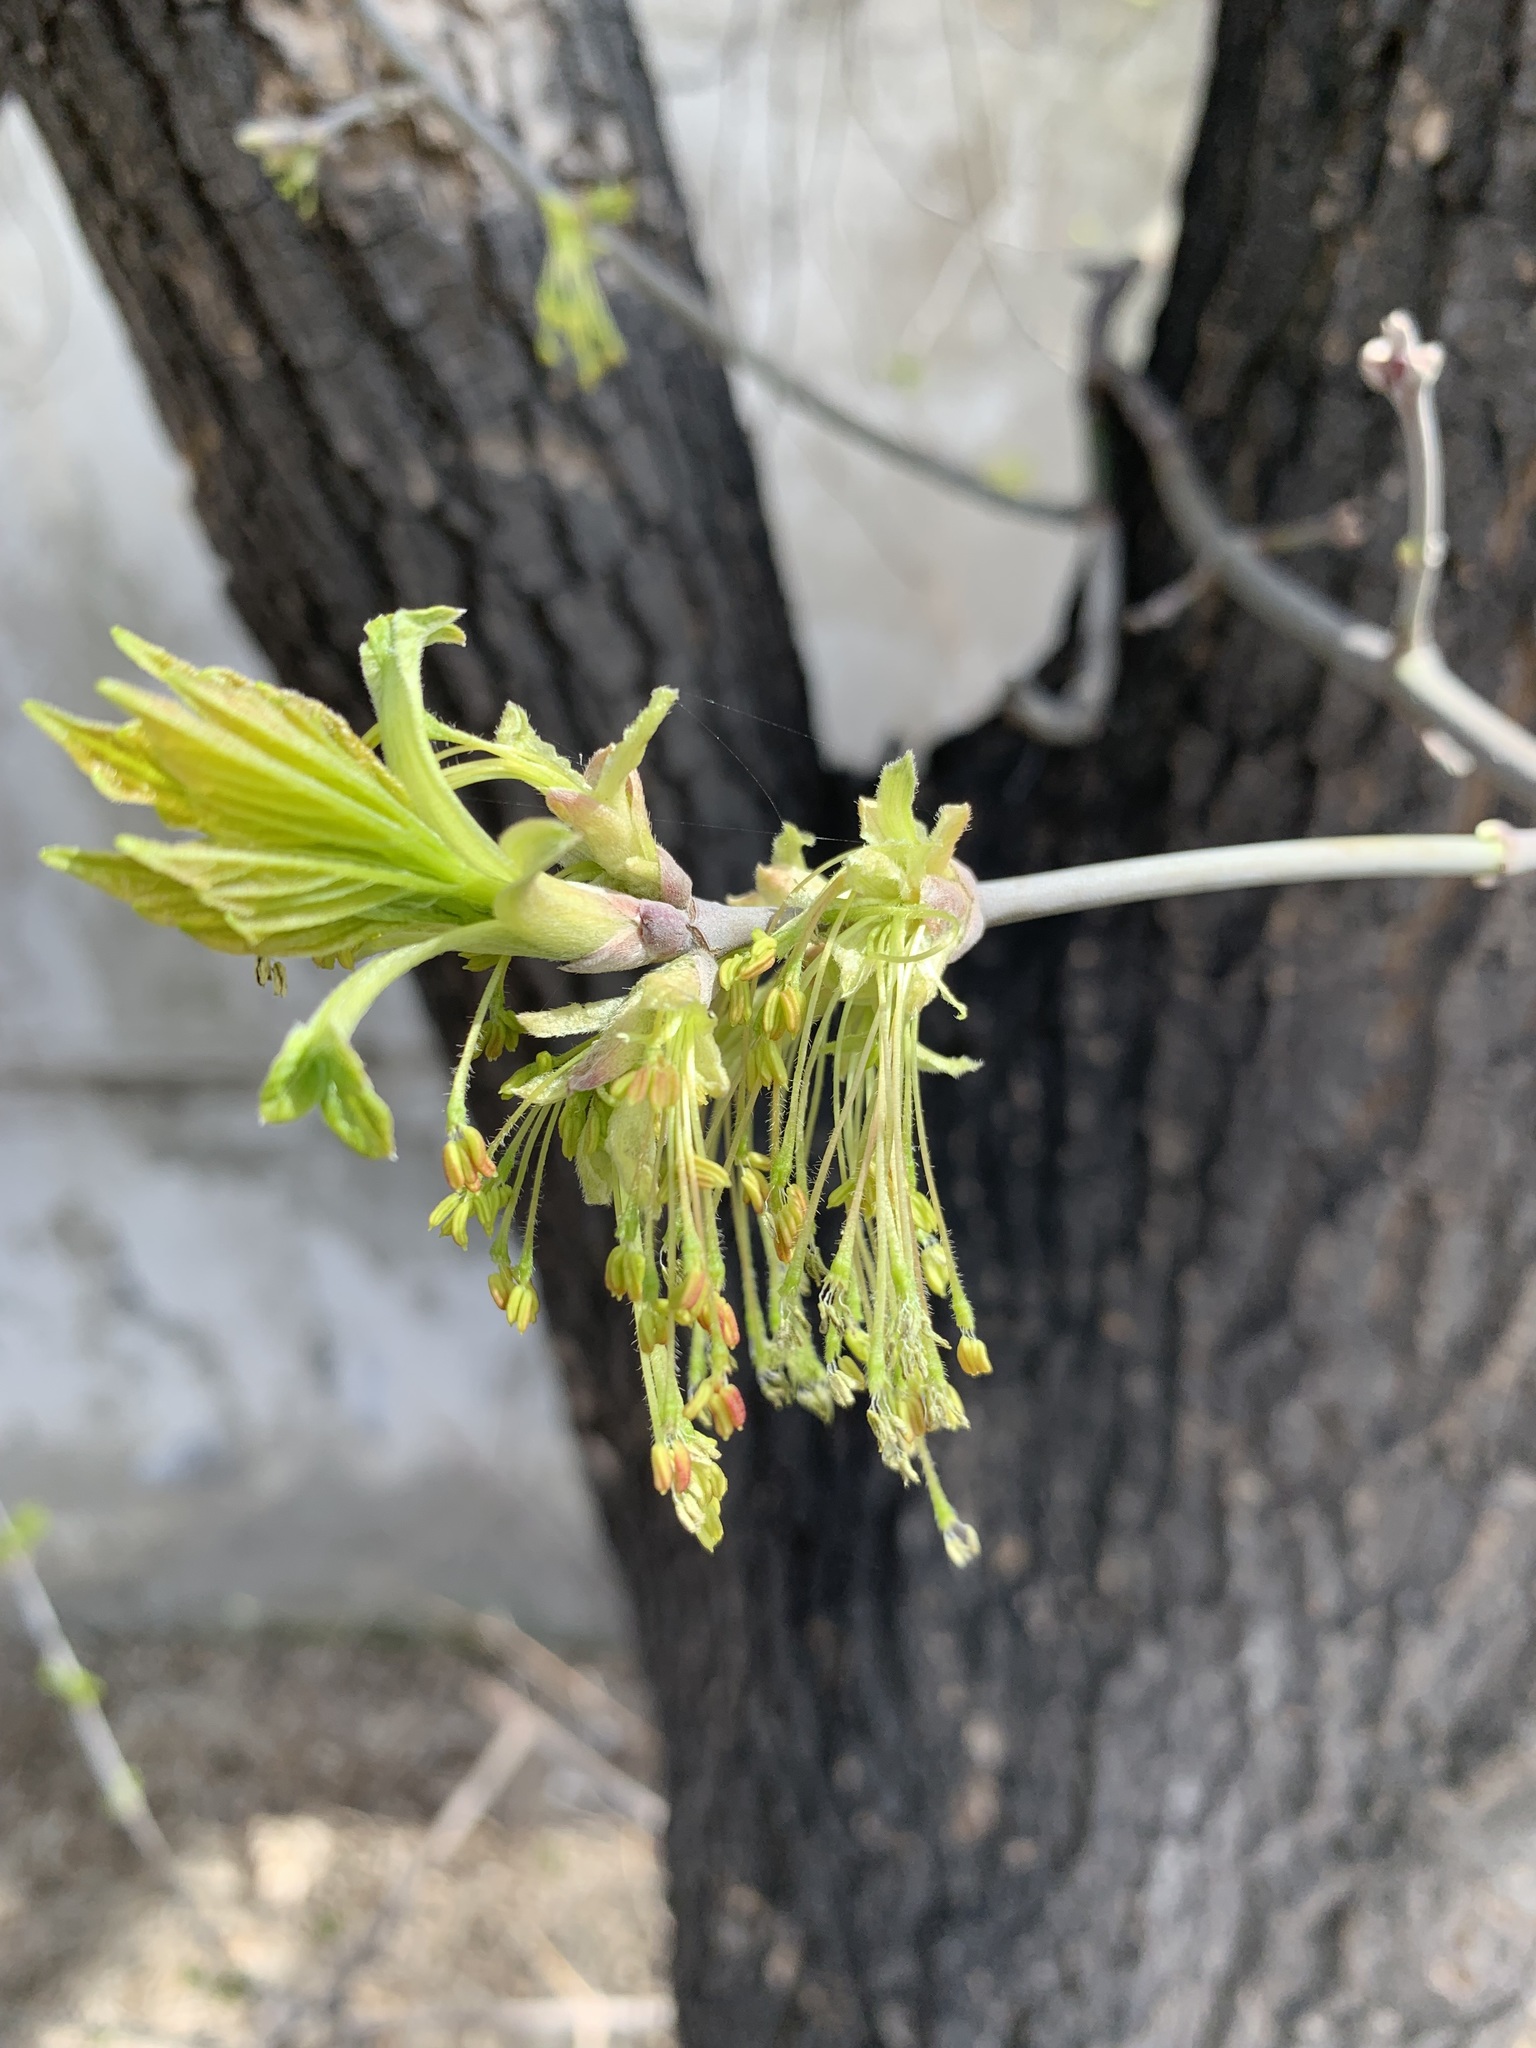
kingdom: Plantae
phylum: Tracheophyta
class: Magnoliopsida
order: Sapindales
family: Sapindaceae
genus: Acer
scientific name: Acer negundo
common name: Ashleaf maple
